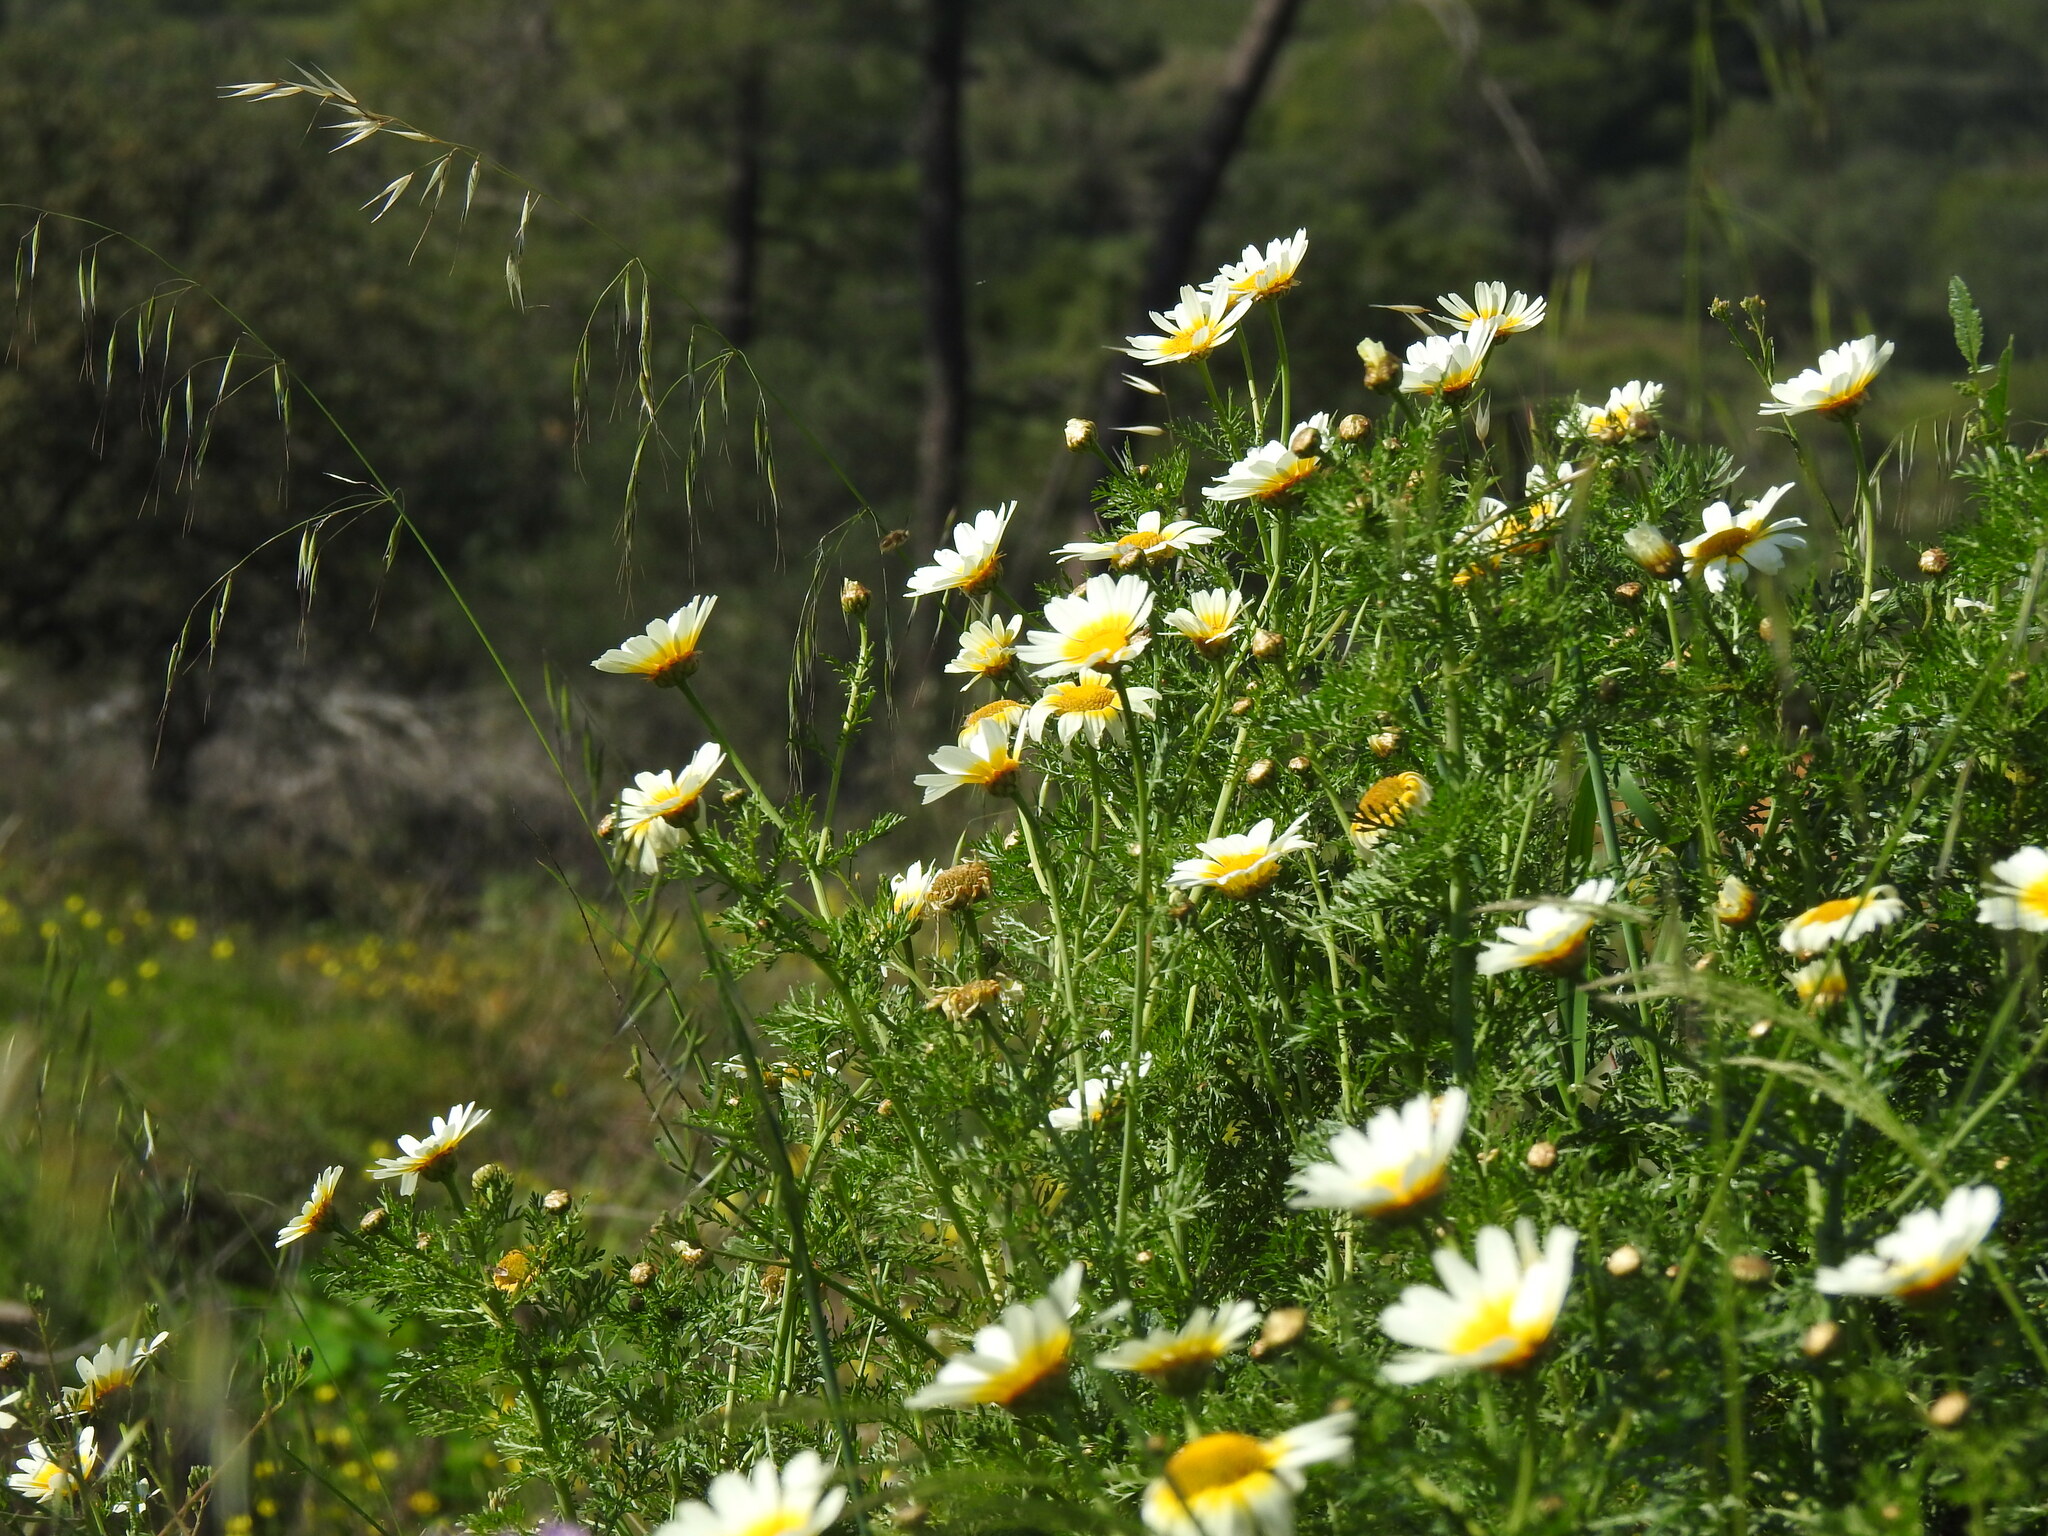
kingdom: Plantae
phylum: Tracheophyta
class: Magnoliopsida
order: Asterales
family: Asteraceae
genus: Glebionis
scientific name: Glebionis coronaria
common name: Crowndaisy
